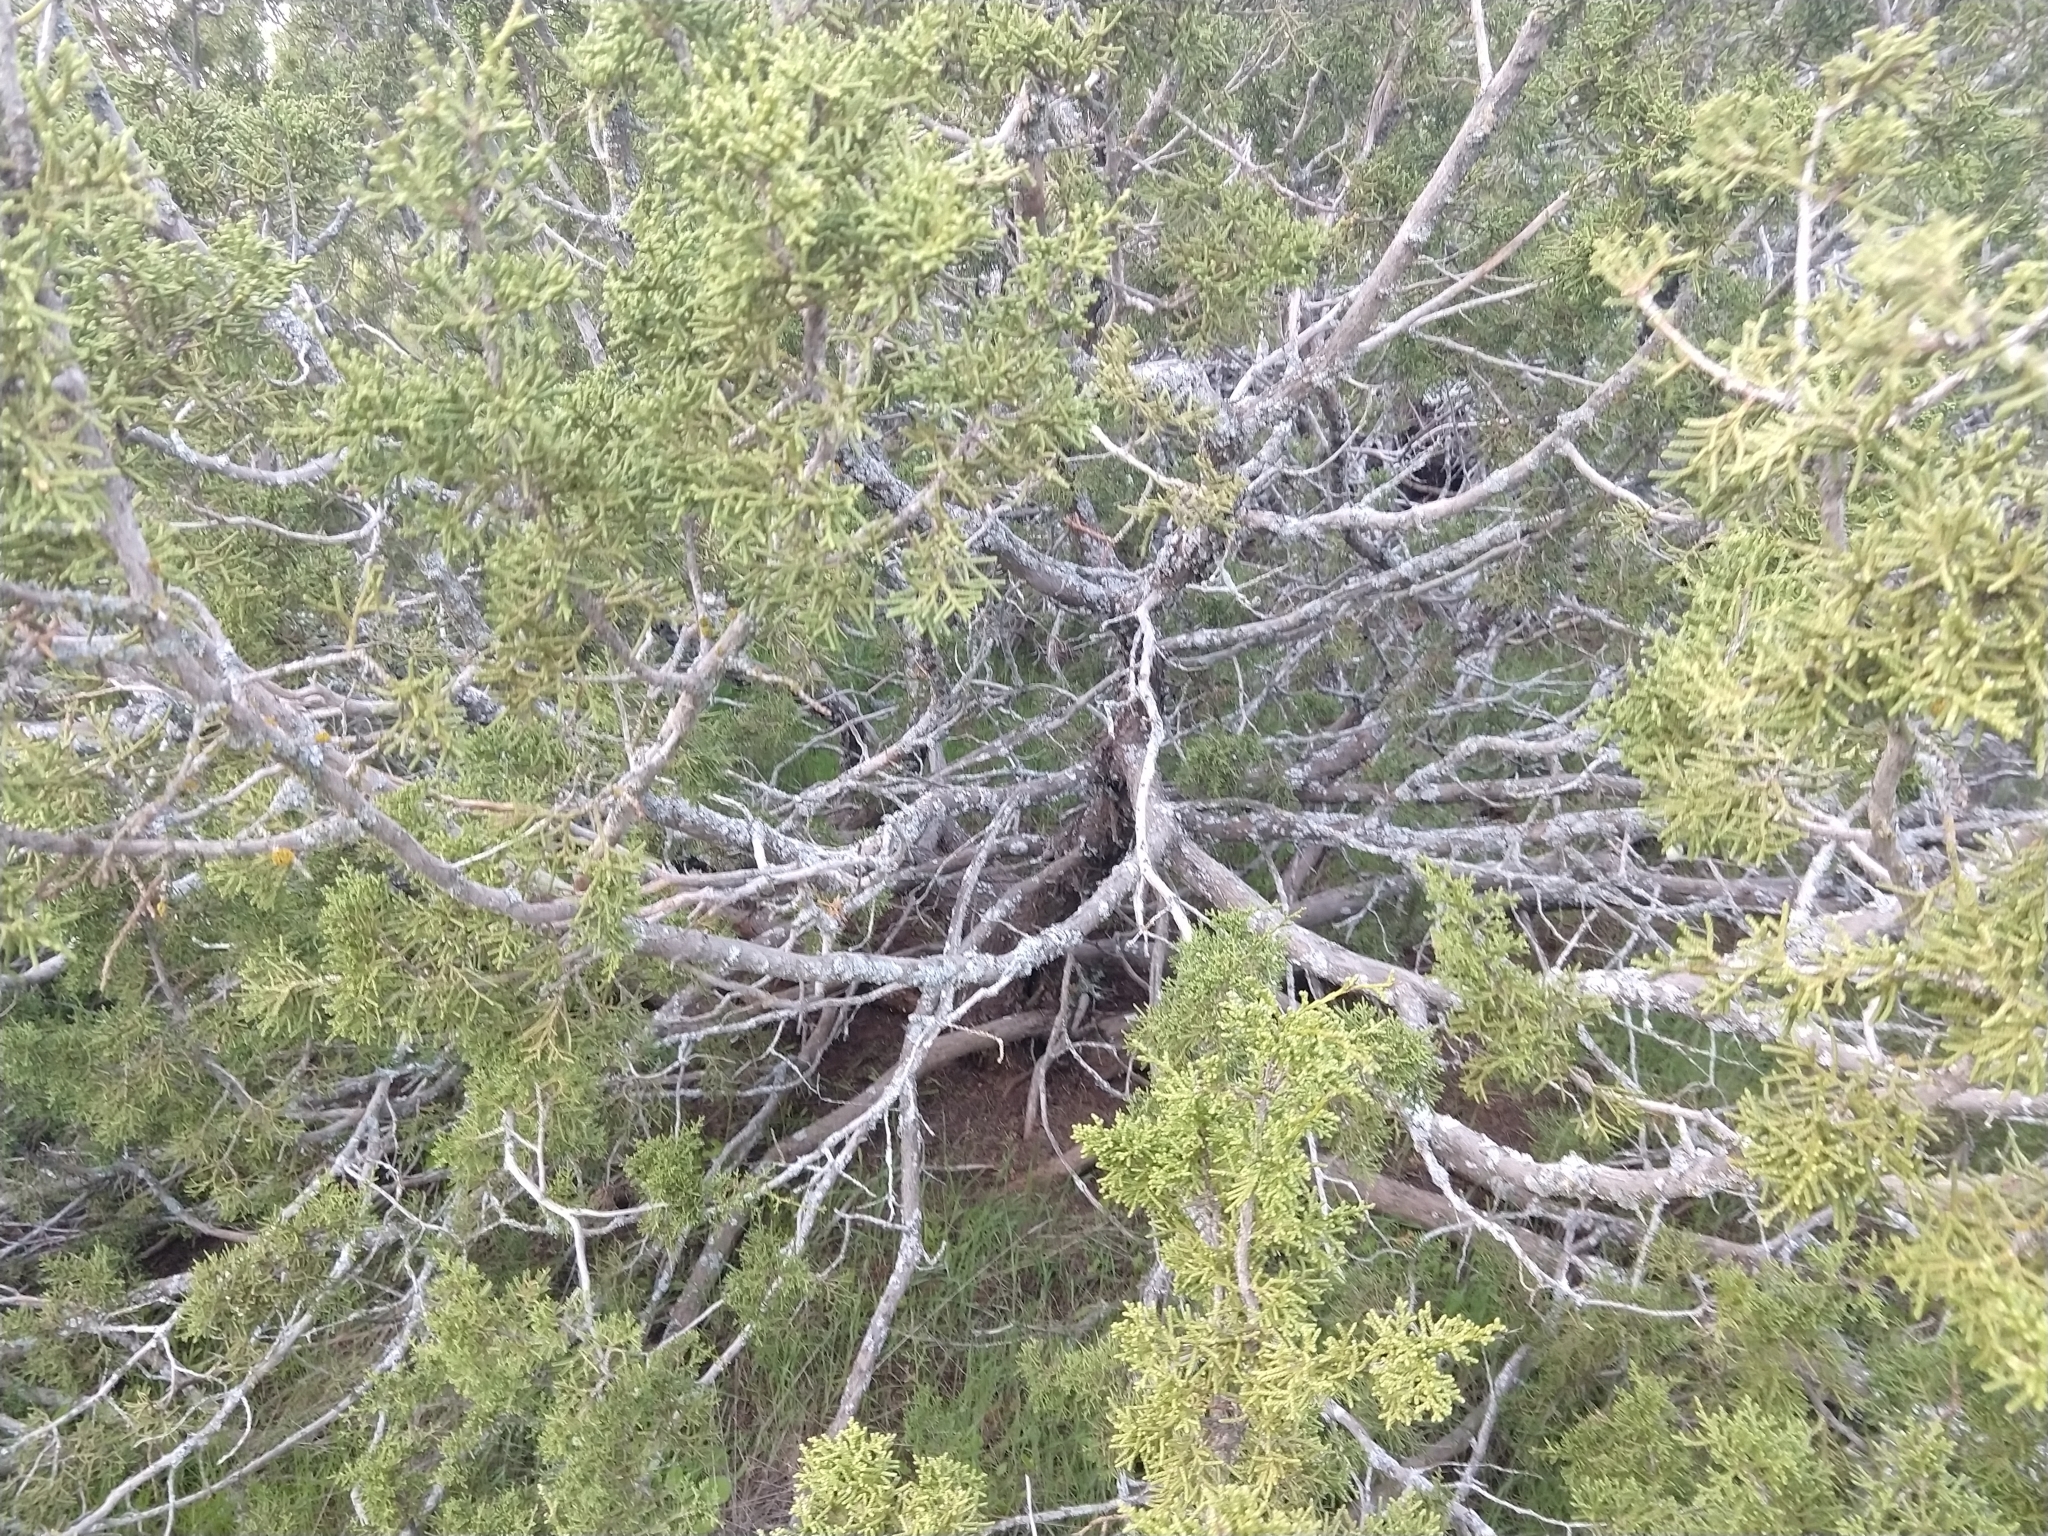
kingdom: Plantae
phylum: Tracheophyta
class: Pinopsida
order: Pinales
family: Cupressaceae
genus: Juniperus
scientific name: Juniperus californica
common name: California juniper
